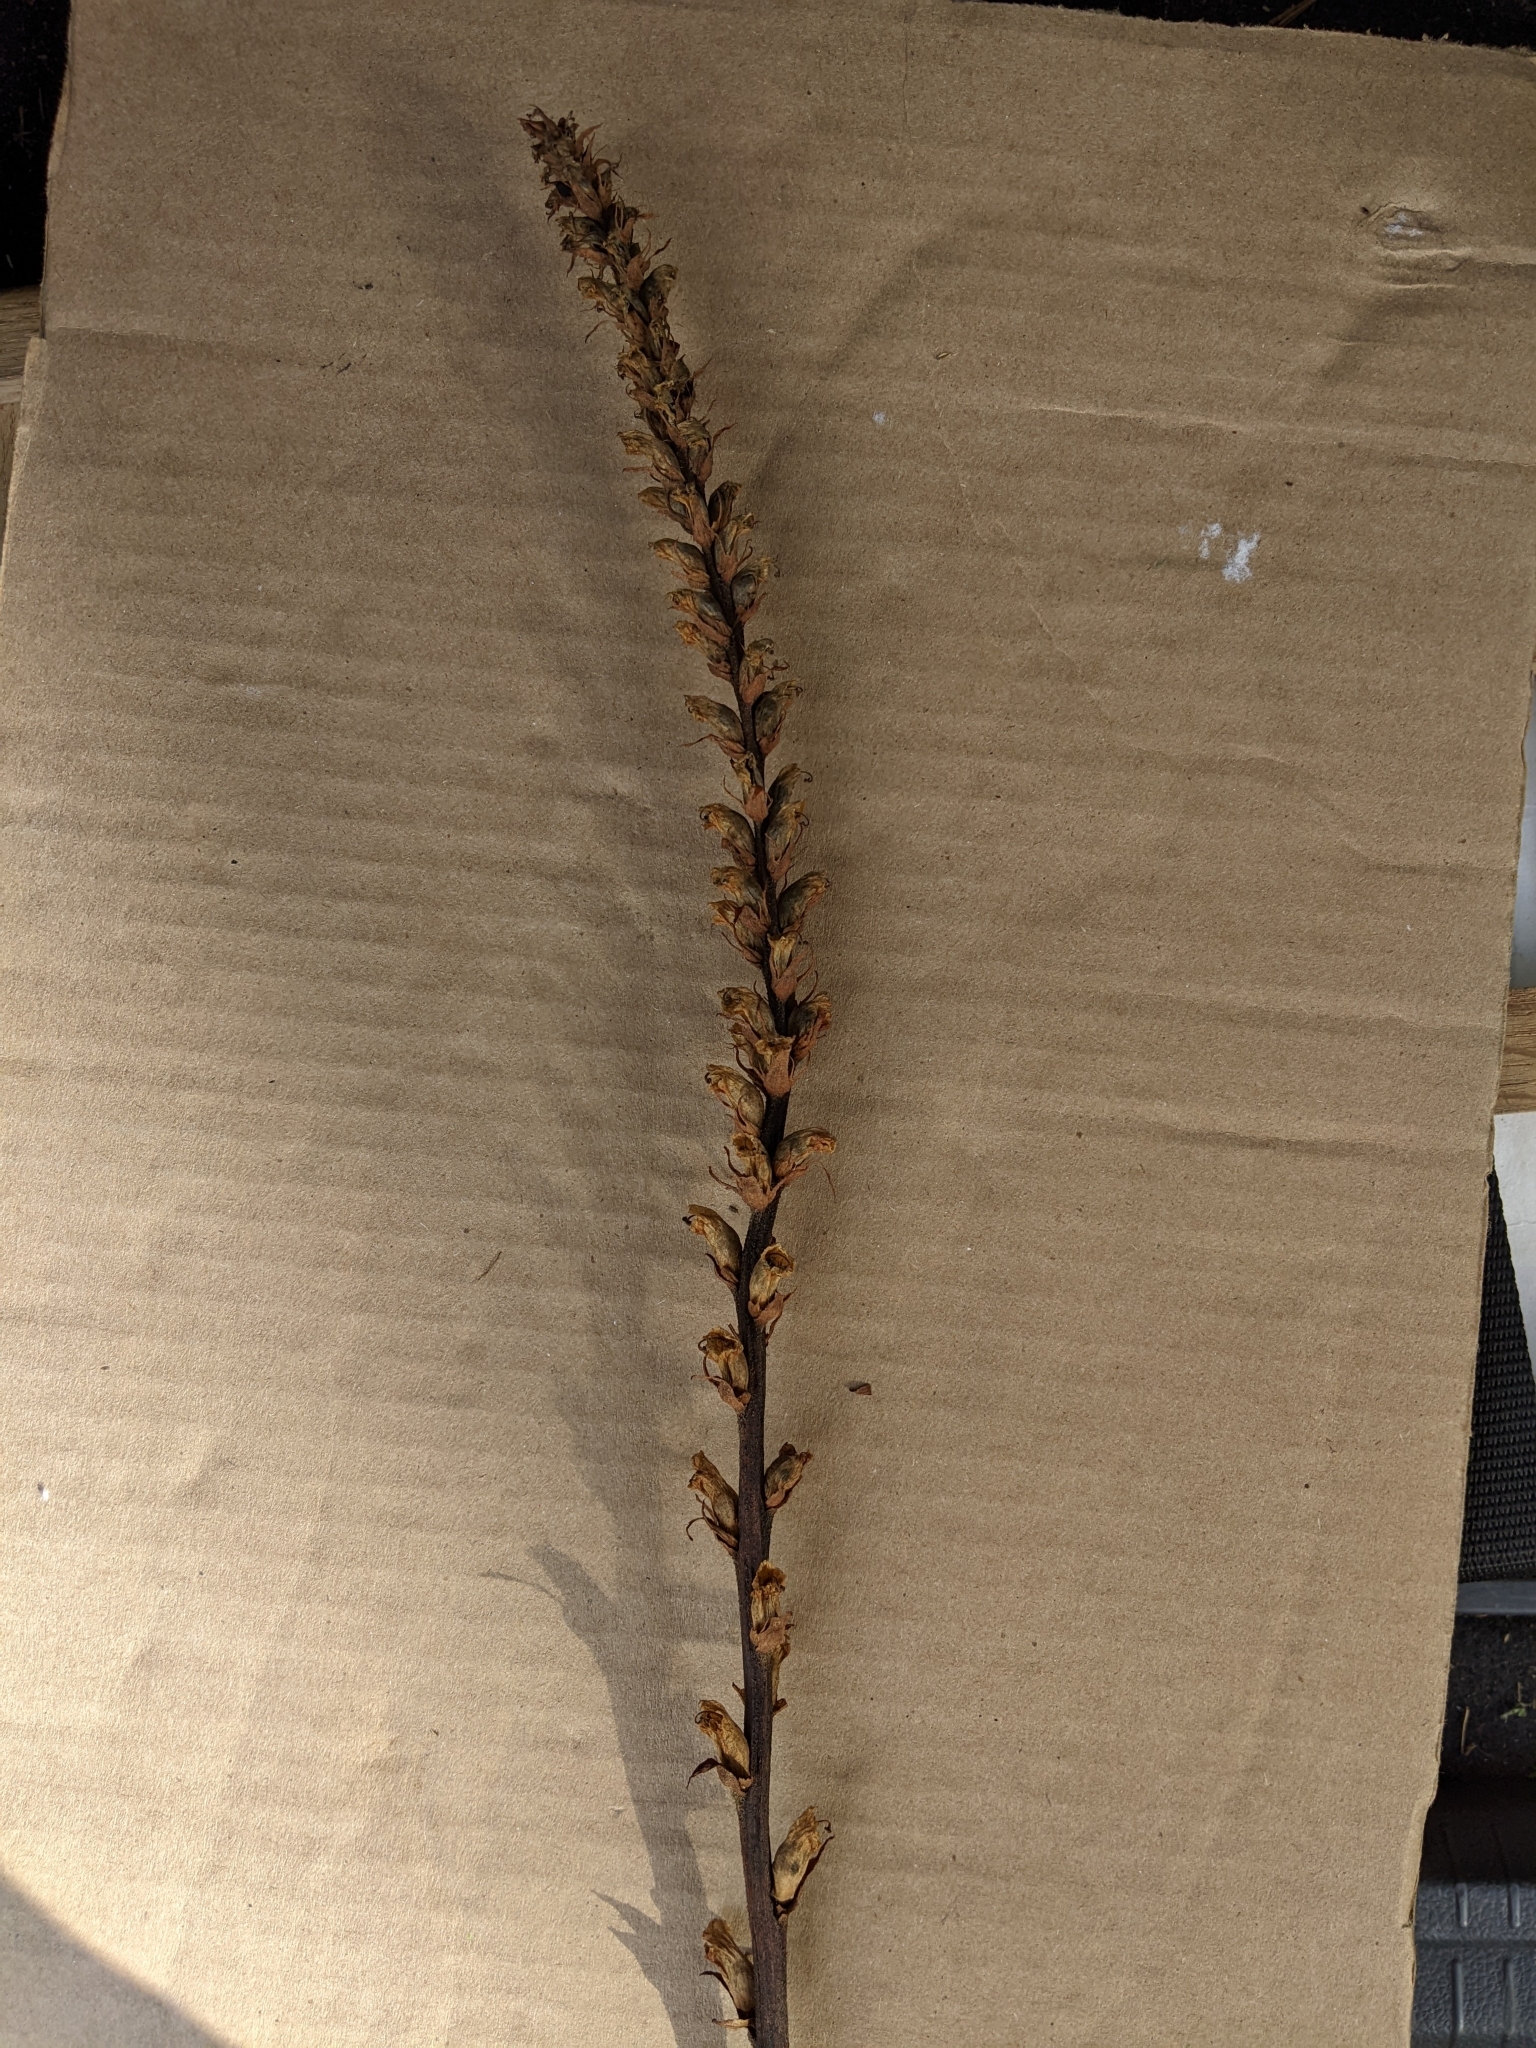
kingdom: Plantae
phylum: Tracheophyta
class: Magnoliopsida
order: Lamiales
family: Orobanchaceae
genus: Orobanche
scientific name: Orobanche minor
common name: Common broomrape
